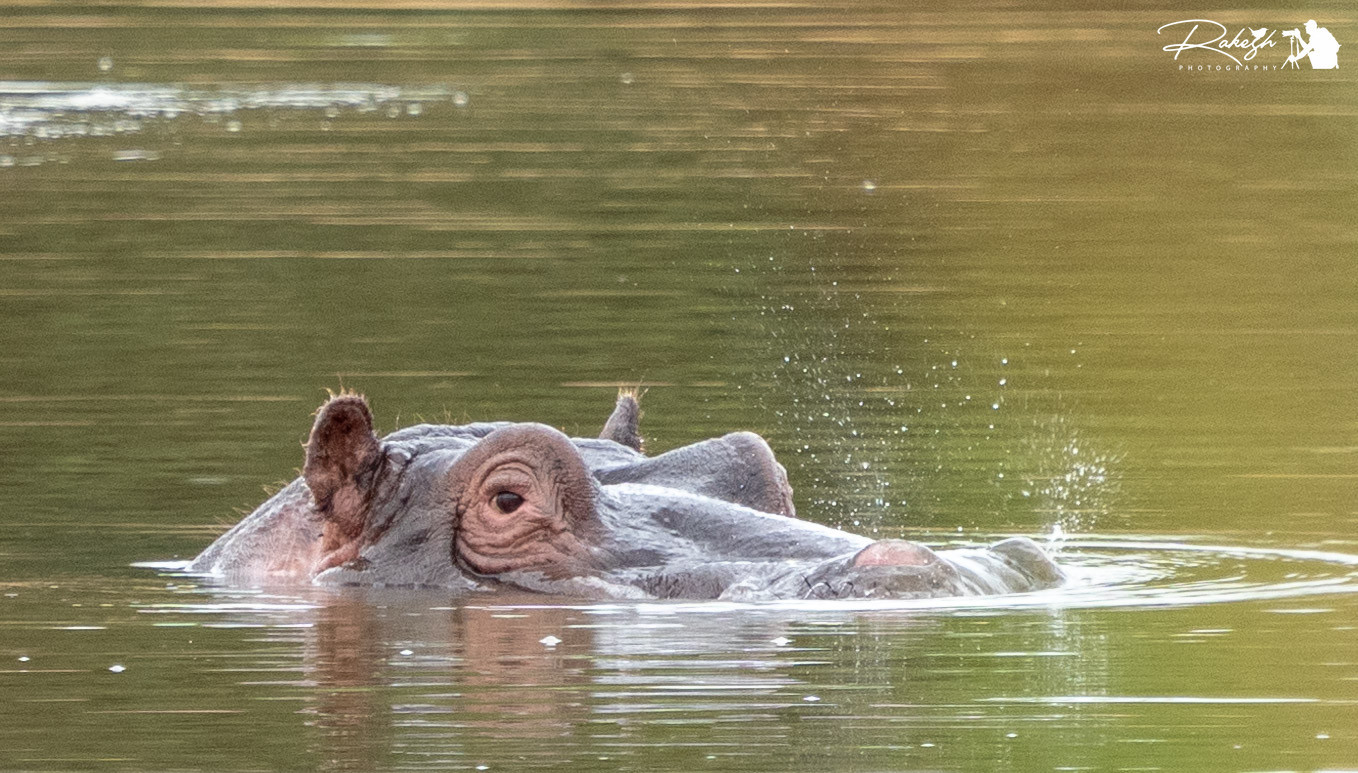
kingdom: Animalia
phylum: Chordata
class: Mammalia
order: Artiodactyla
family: Hippopotamidae
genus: Hippopotamus
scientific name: Hippopotamus amphibius
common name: Common hippopotamus
